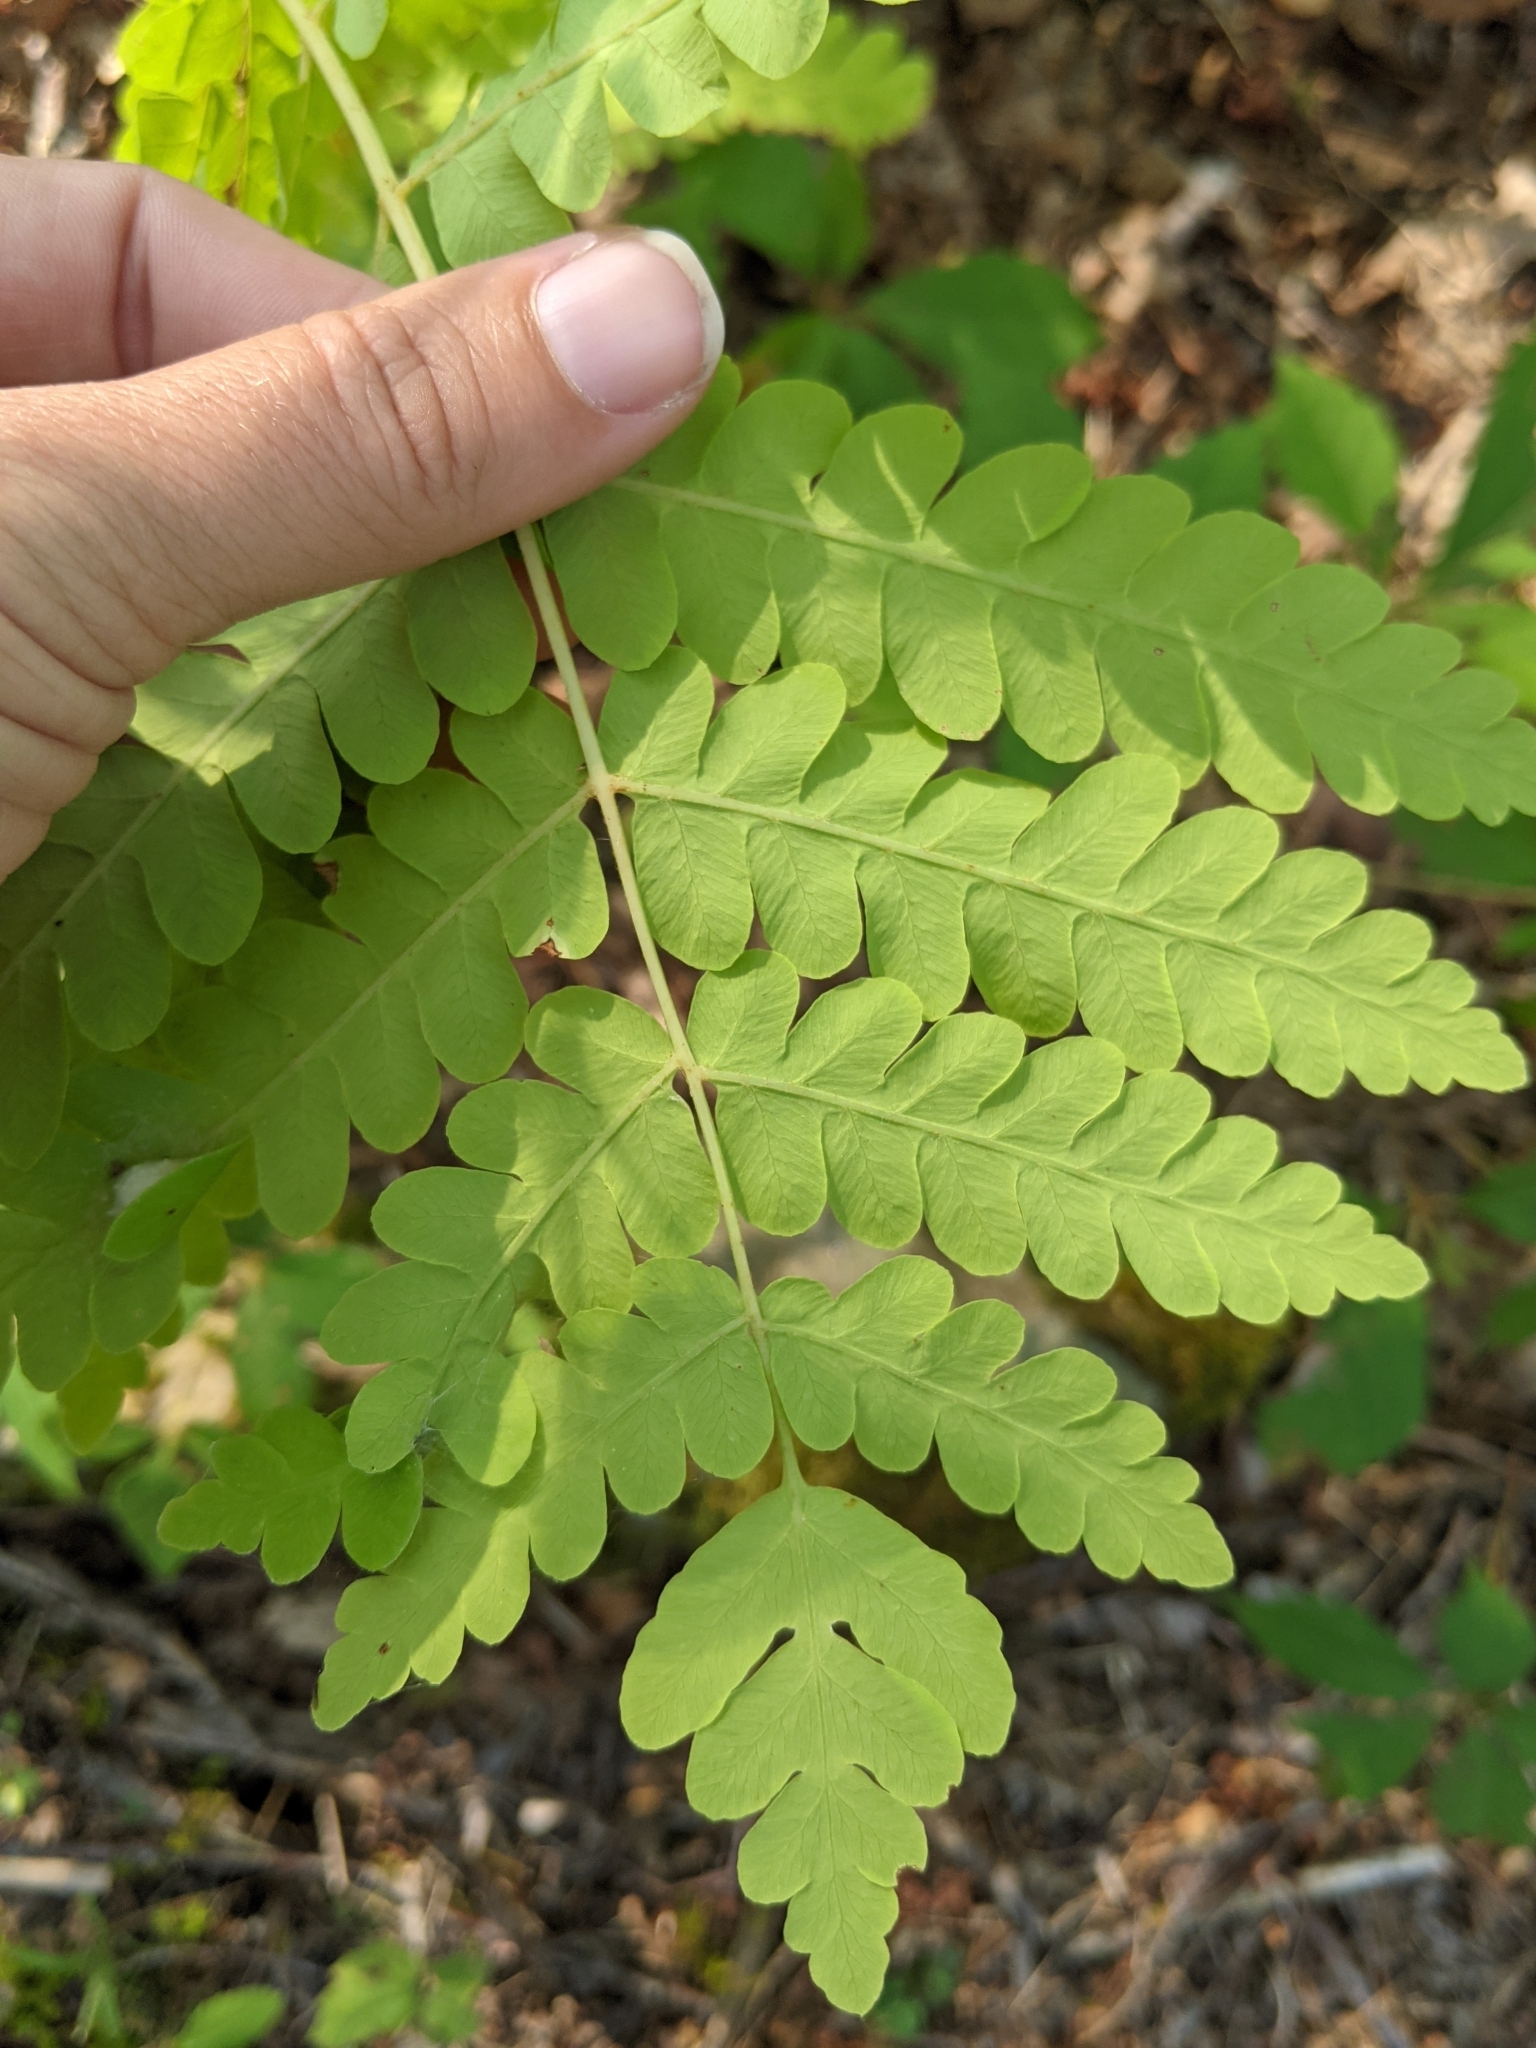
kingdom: Plantae
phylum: Tracheophyta
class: Polypodiopsida
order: Osmundales
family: Osmundaceae
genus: Claytosmunda
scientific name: Claytosmunda claytoniana
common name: Clayton's fern
